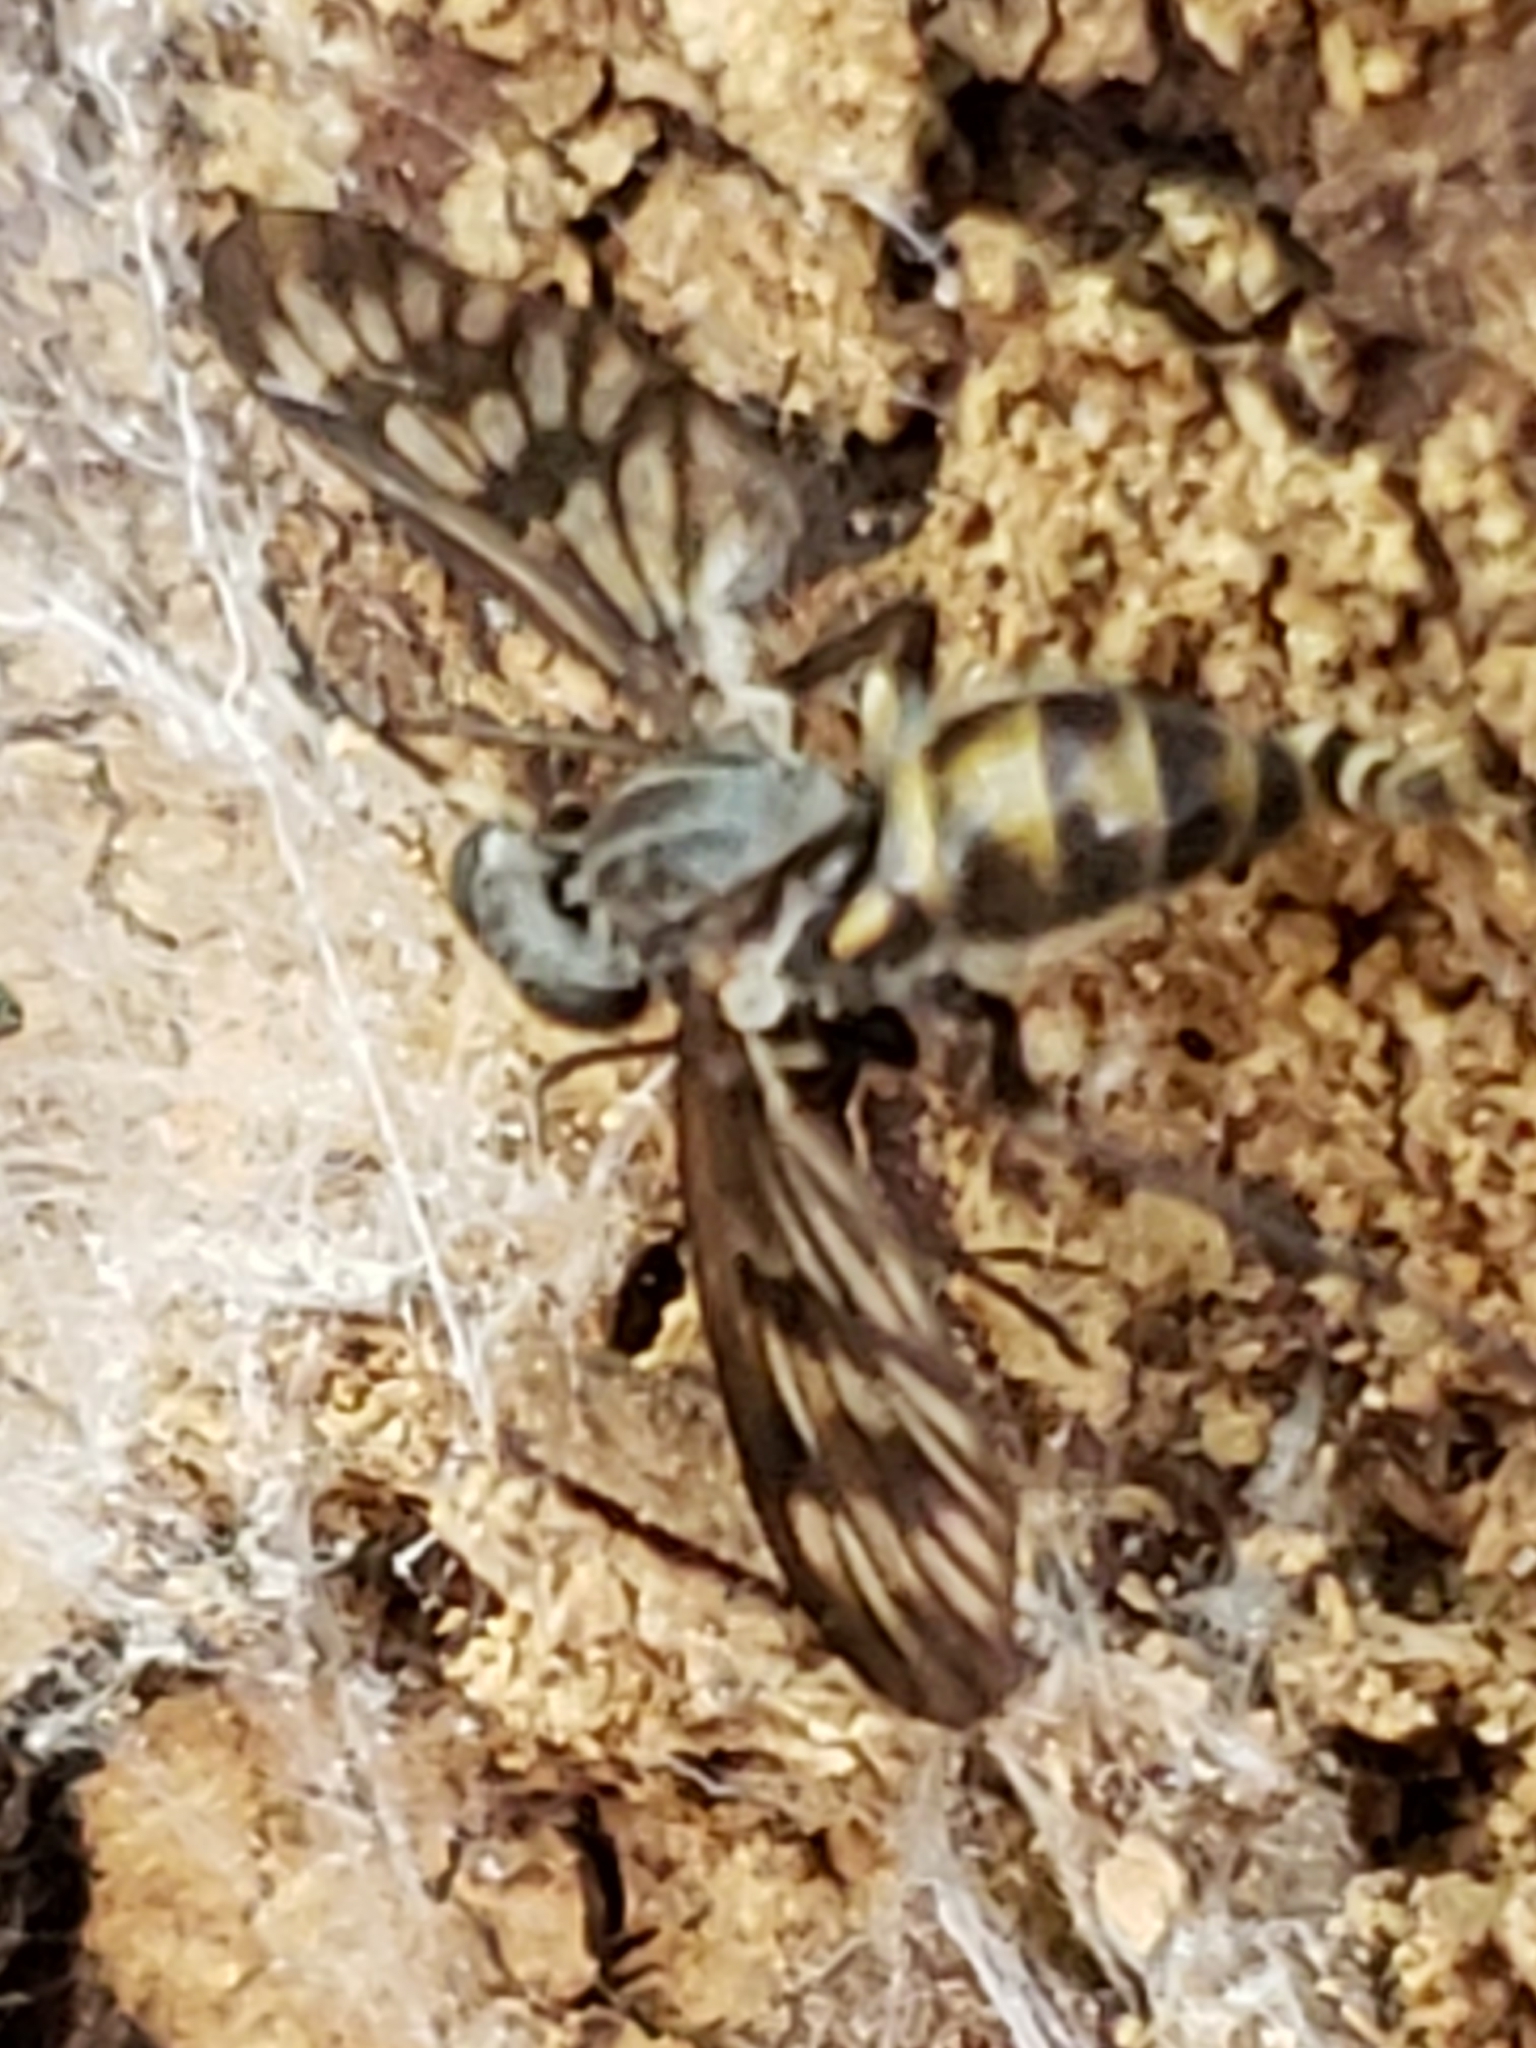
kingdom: Animalia
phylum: Arthropoda
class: Insecta
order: Diptera
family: Rhagionidae
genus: Rhagio
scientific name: Rhagio mystaceus
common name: Common snipe fly
